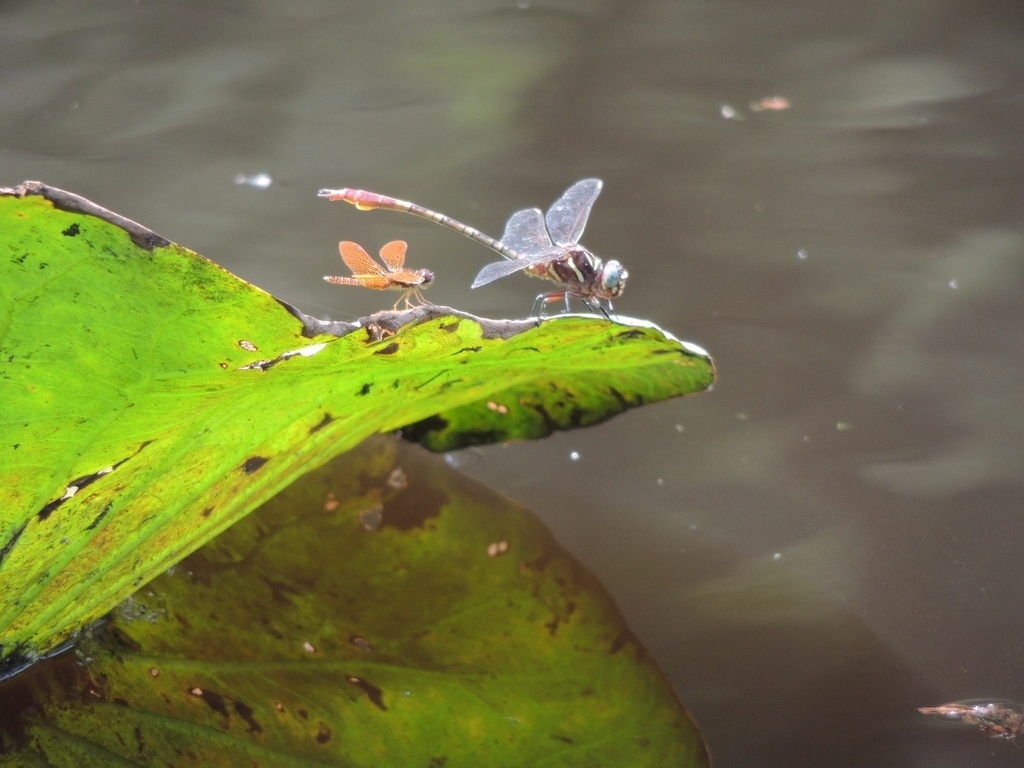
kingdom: Animalia
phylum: Arthropoda
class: Insecta
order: Odonata
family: Libellulidae
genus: Perithemis
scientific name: Perithemis tenera
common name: Eastern amberwing
